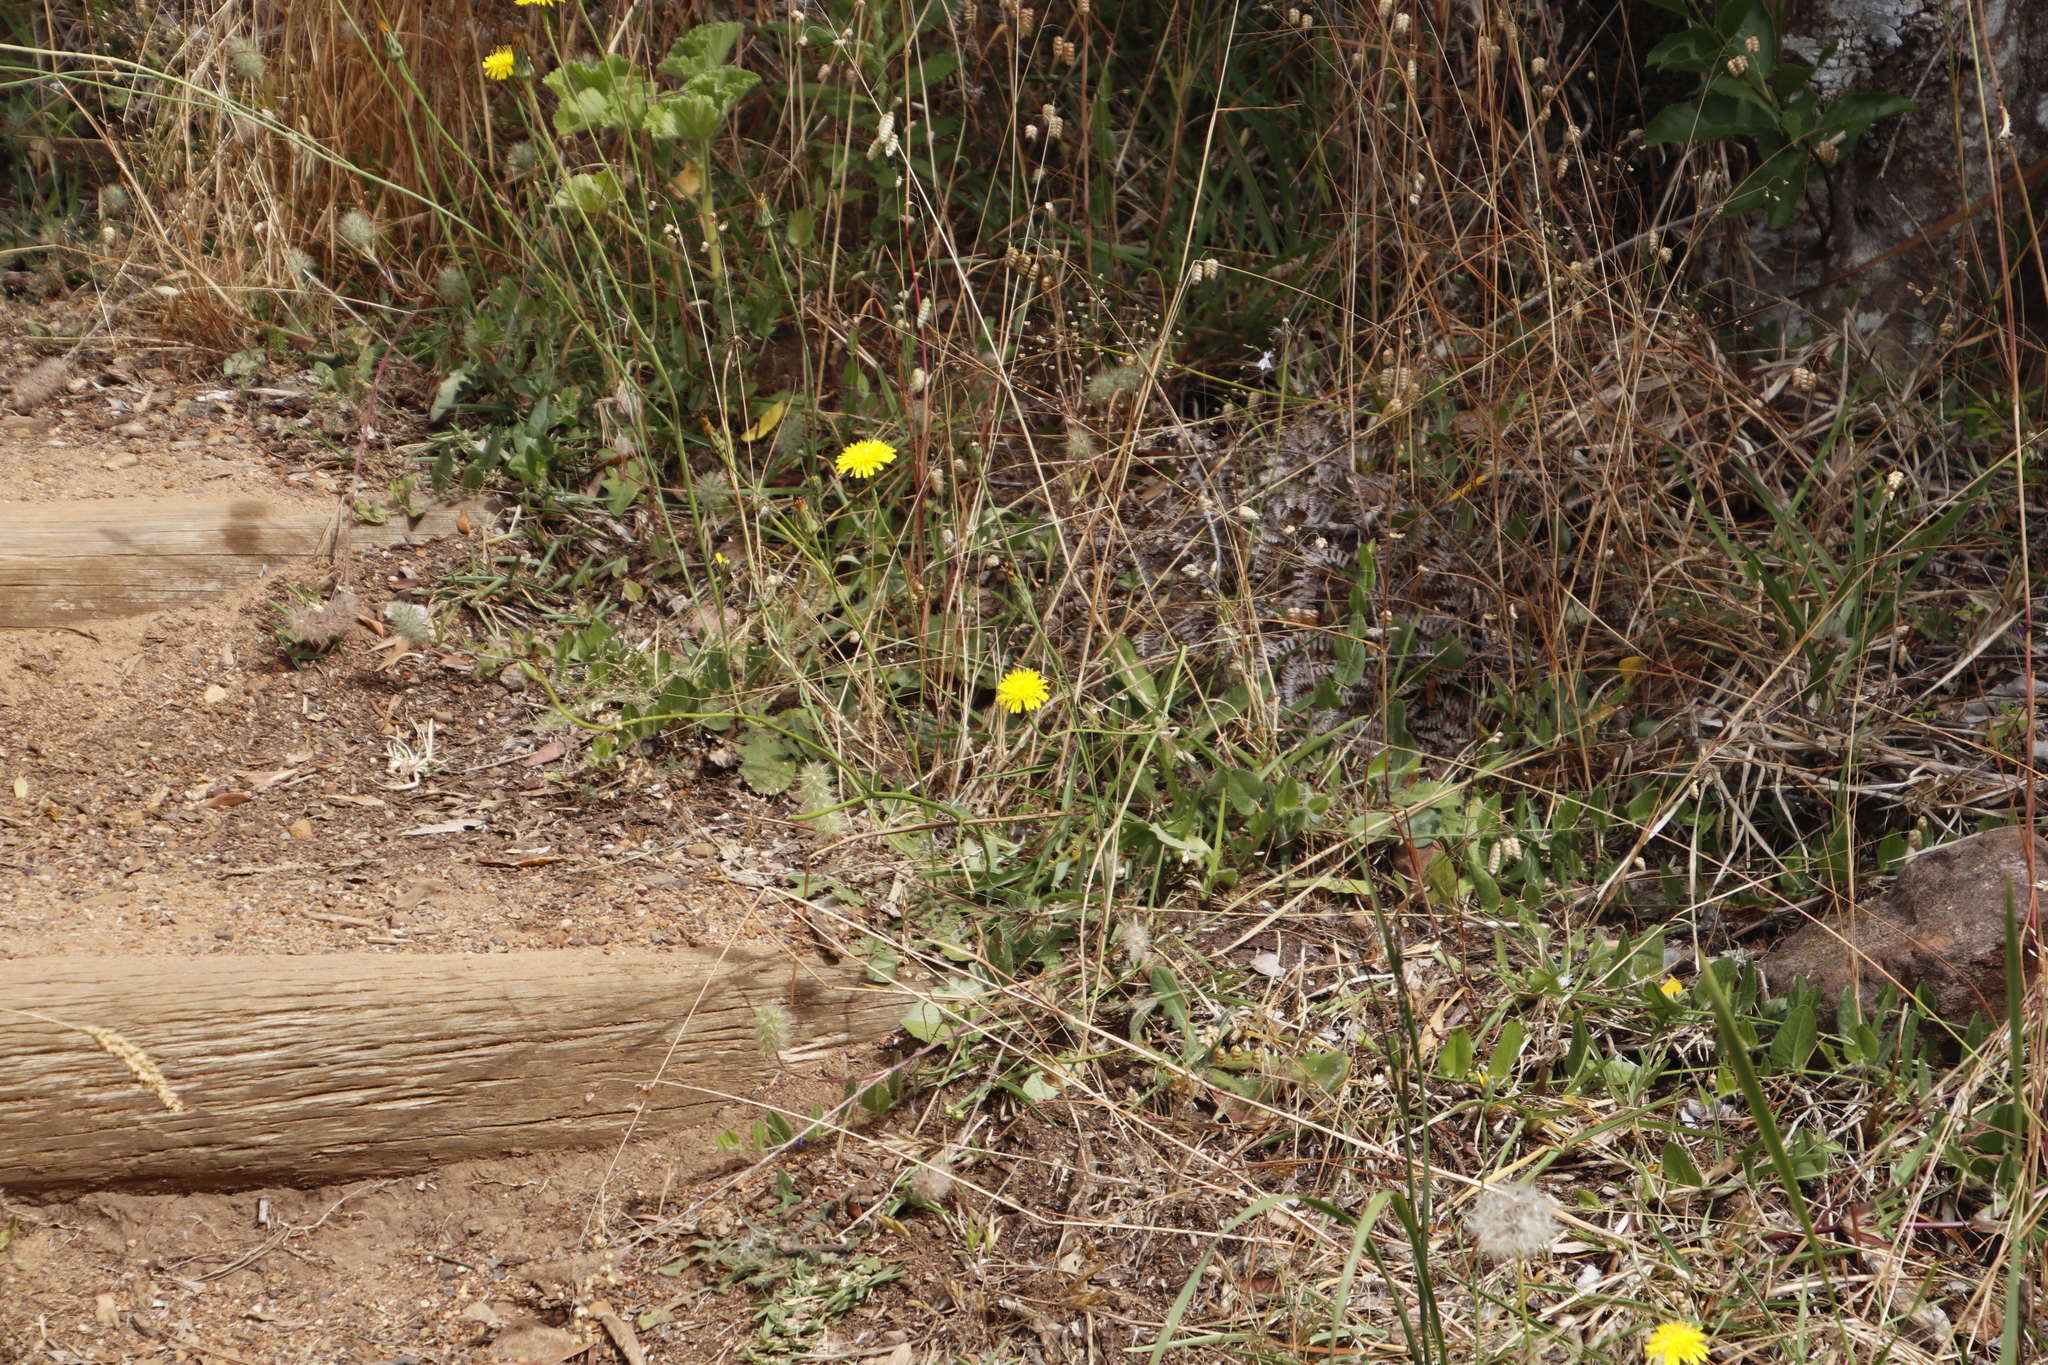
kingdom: Plantae
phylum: Tracheophyta
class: Magnoliopsida
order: Asterales
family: Asteraceae
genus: Hypochaeris
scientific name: Hypochaeris radicata
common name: Flatweed
